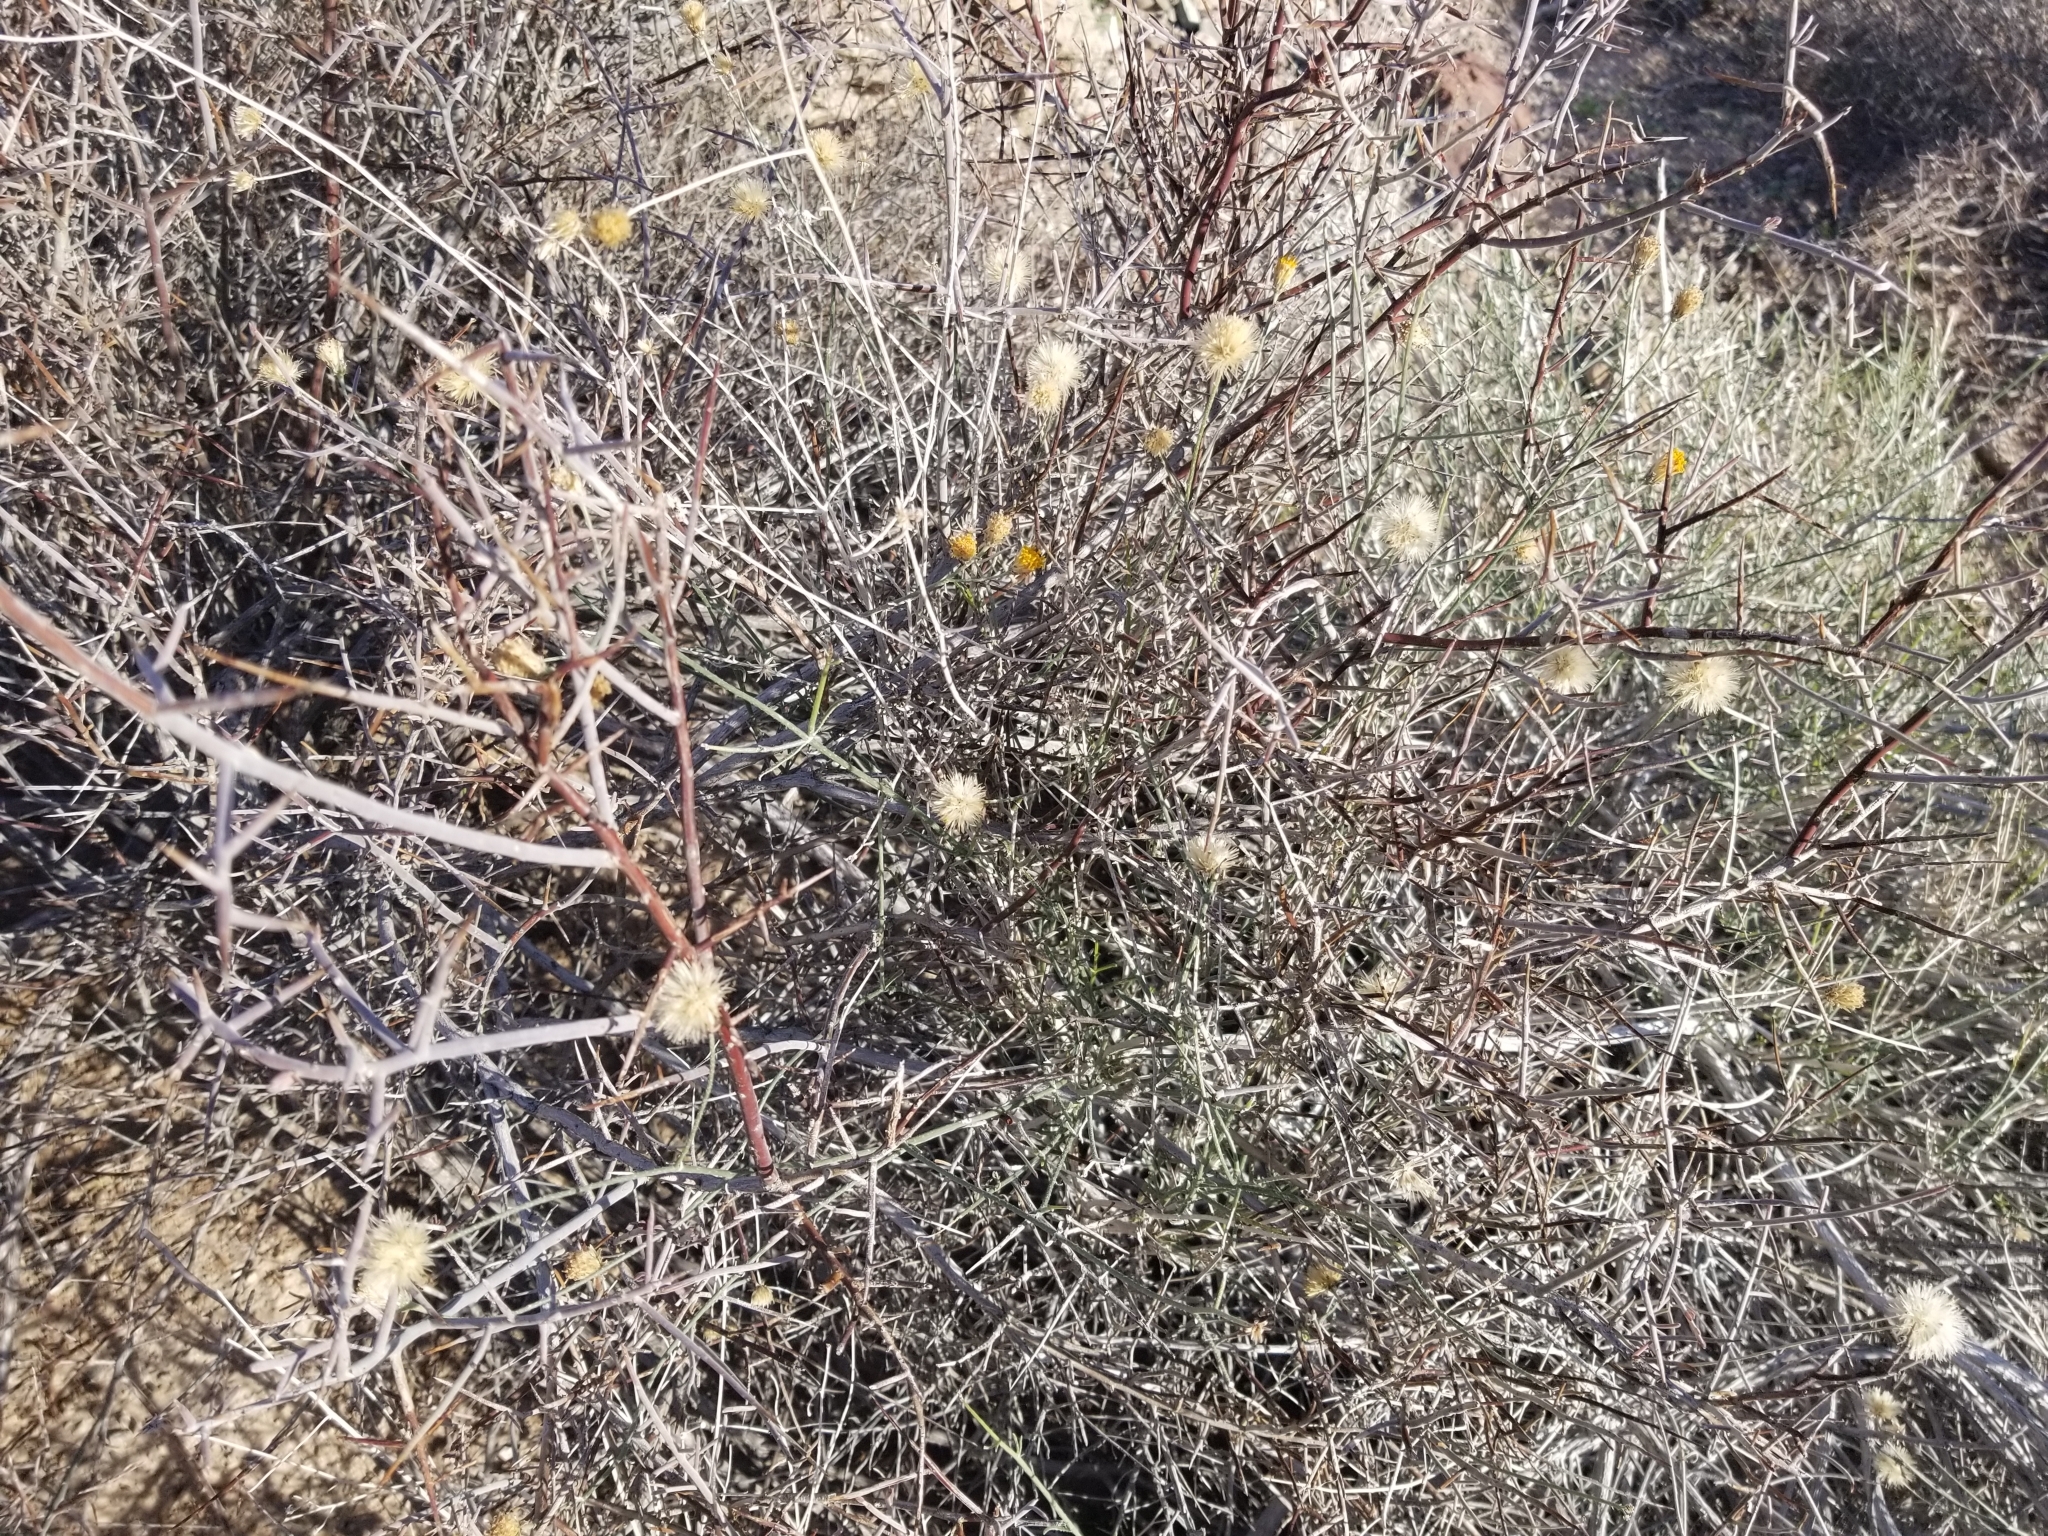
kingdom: Plantae
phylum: Tracheophyta
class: Magnoliopsida
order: Asterales
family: Asteraceae
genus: Bebbia
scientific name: Bebbia juncea
